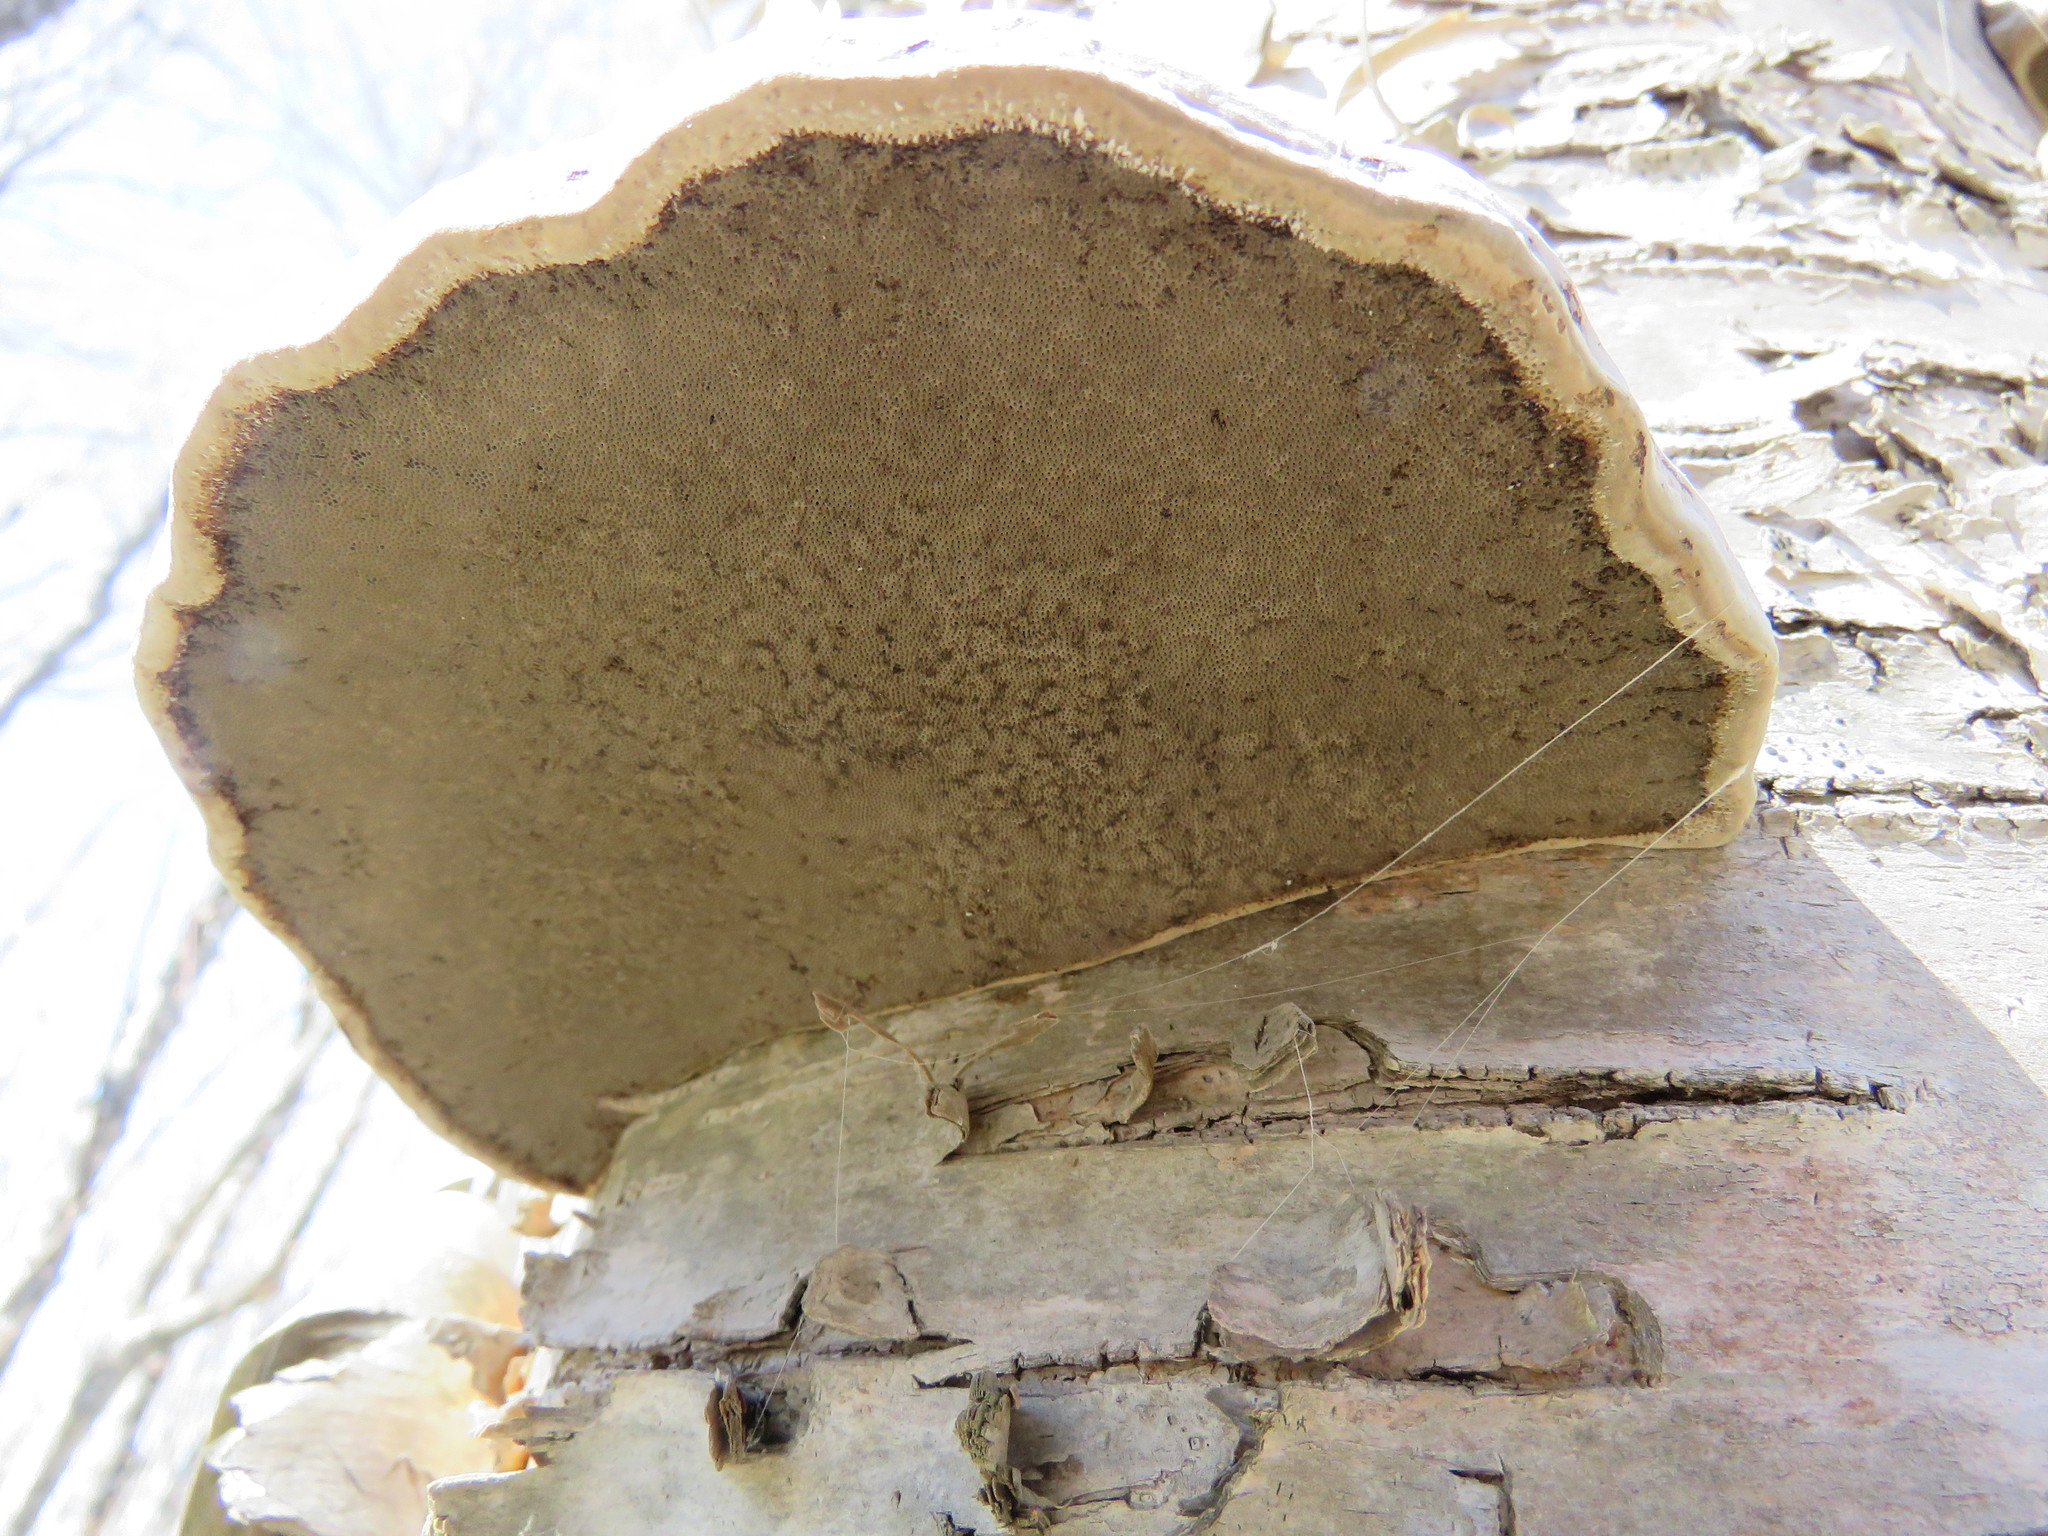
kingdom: Fungi
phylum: Basidiomycota
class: Agaricomycetes
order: Polyporales
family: Polyporaceae
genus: Fomes
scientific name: Fomes fomentarius
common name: Hoof fungus
